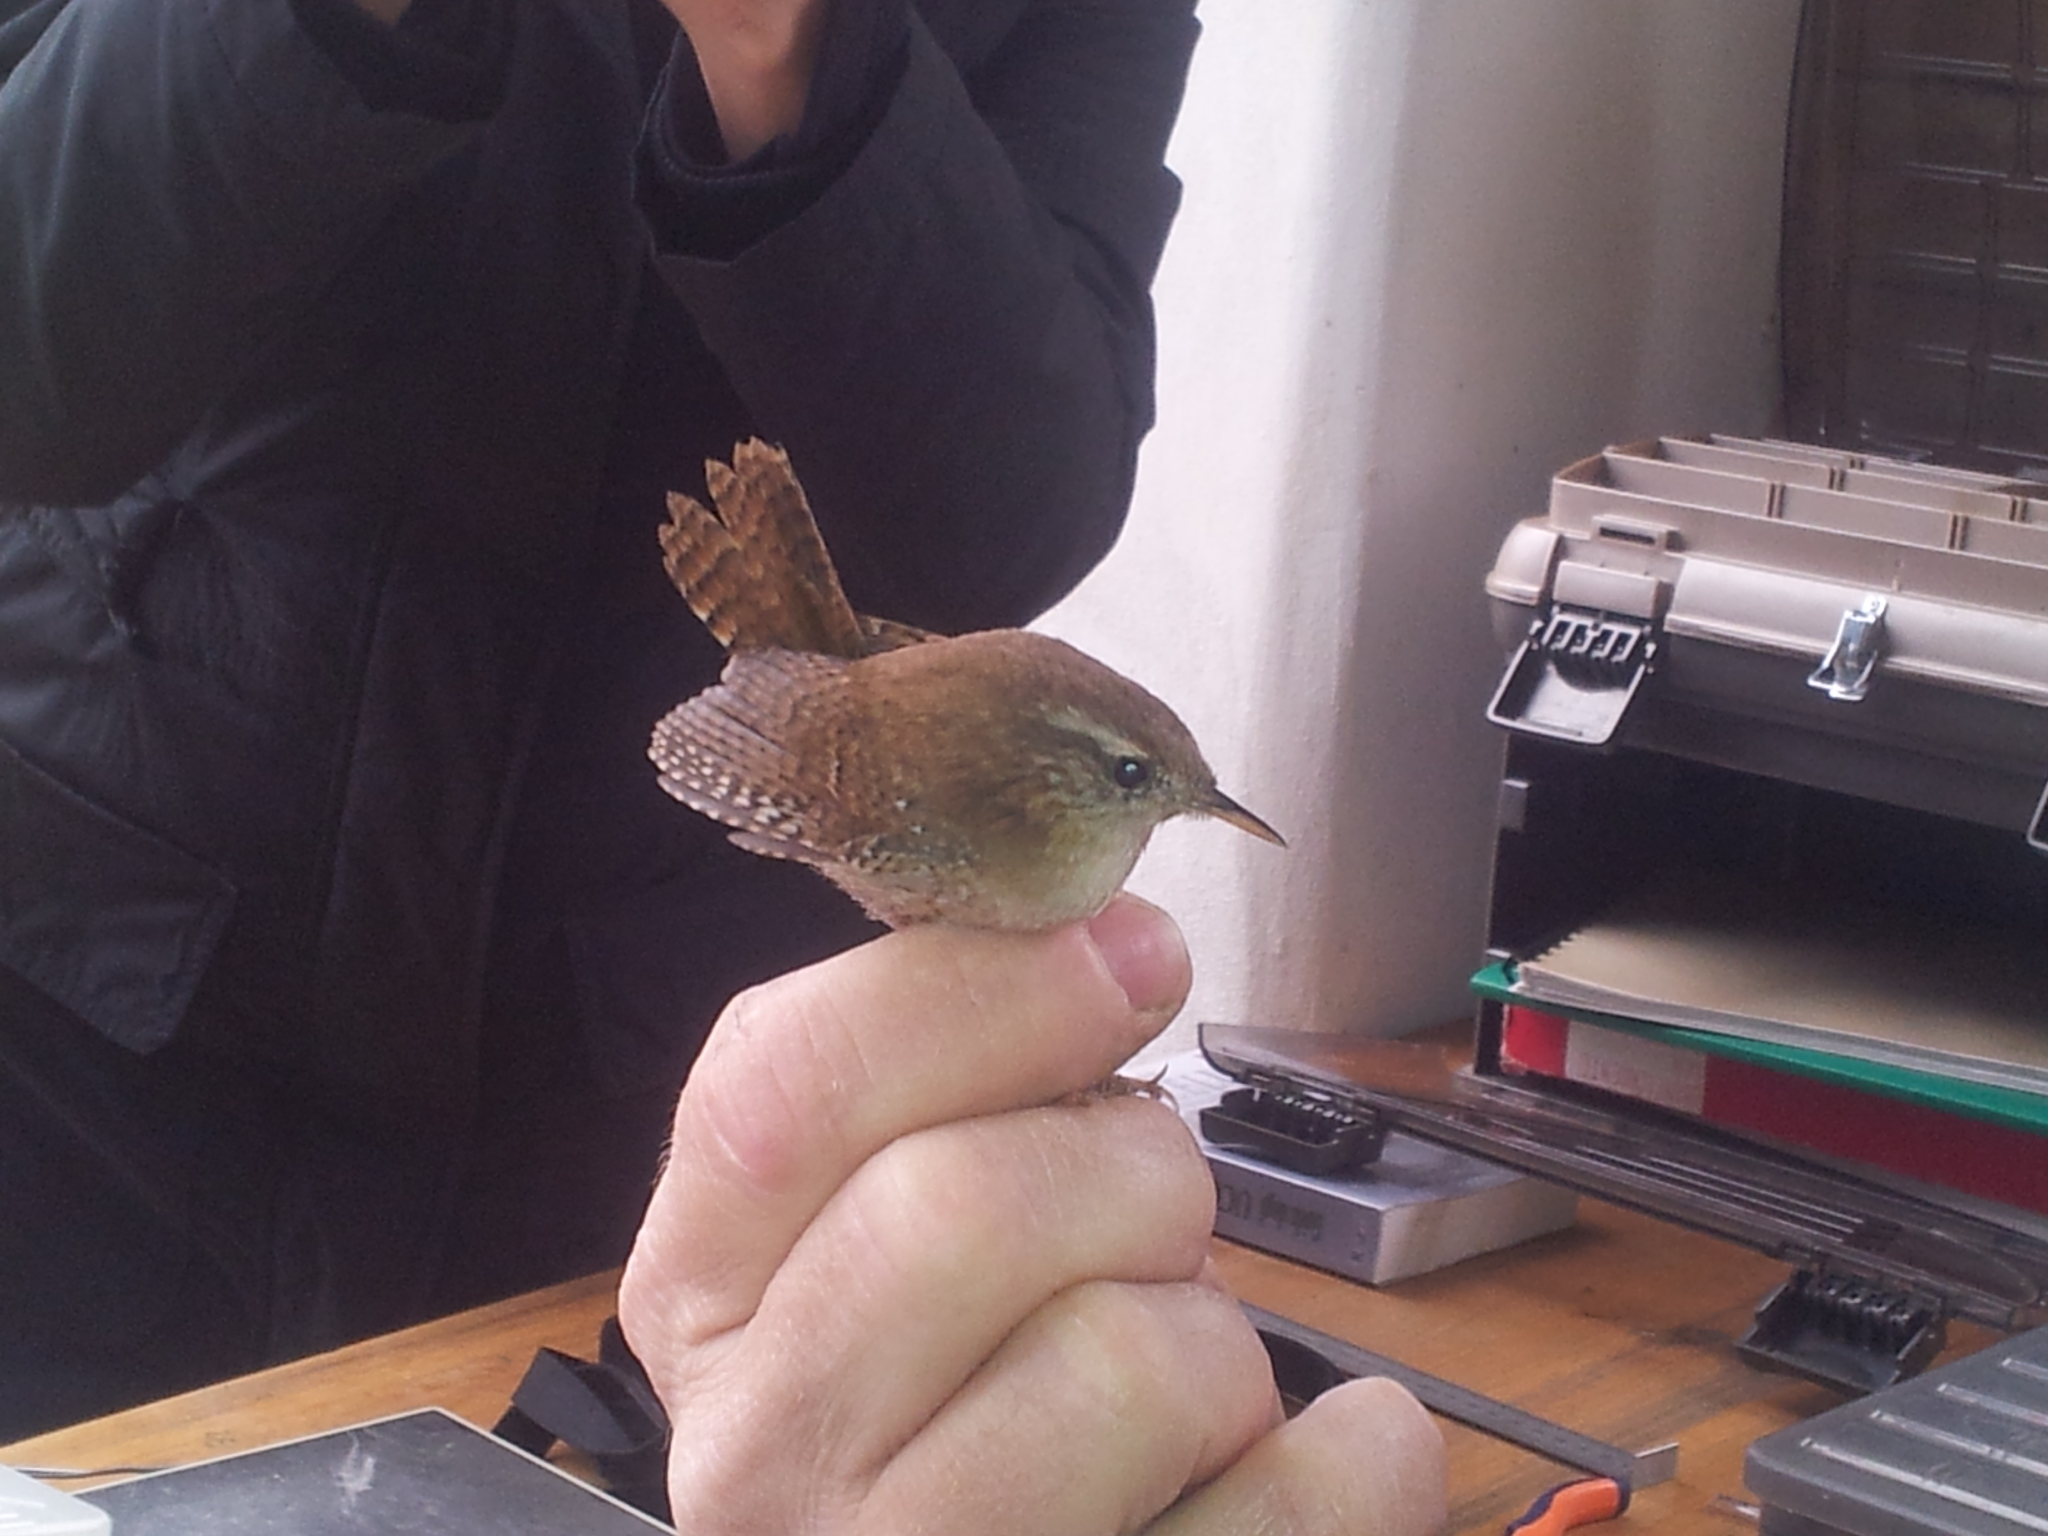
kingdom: Animalia
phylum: Chordata
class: Aves
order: Passeriformes
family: Troglodytidae
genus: Troglodytes
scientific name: Troglodytes troglodytes
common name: Eurasian wren
